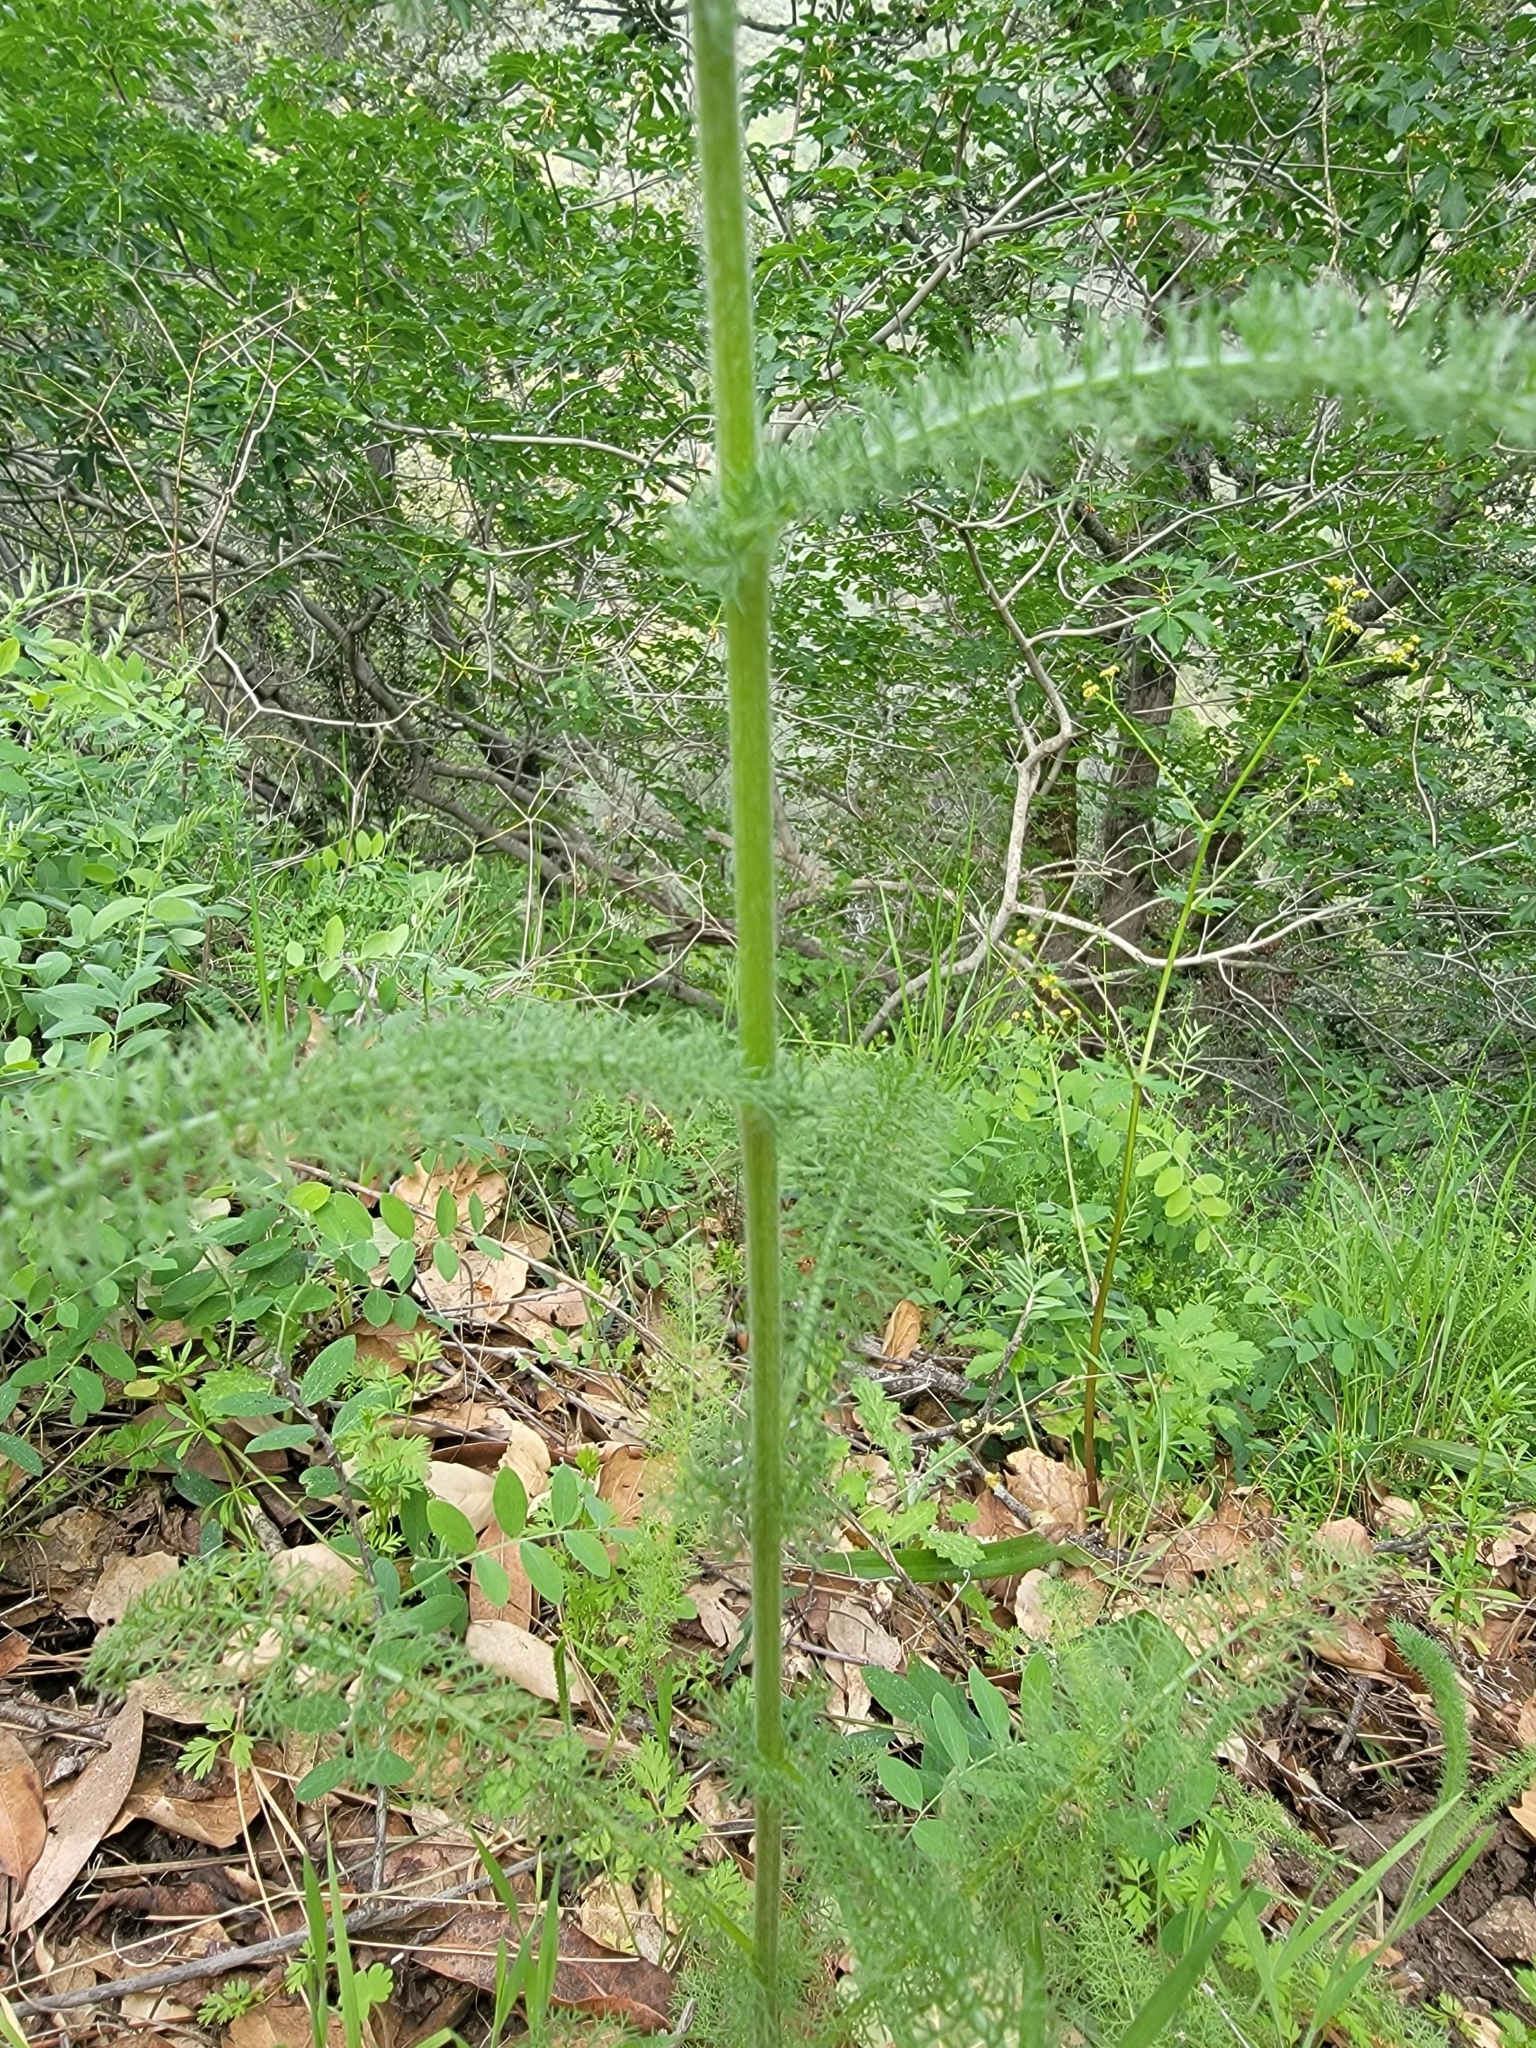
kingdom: Plantae
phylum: Tracheophyta
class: Magnoliopsida
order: Asterales
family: Asteraceae
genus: Achillea
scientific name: Achillea millefolium
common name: Yarrow
